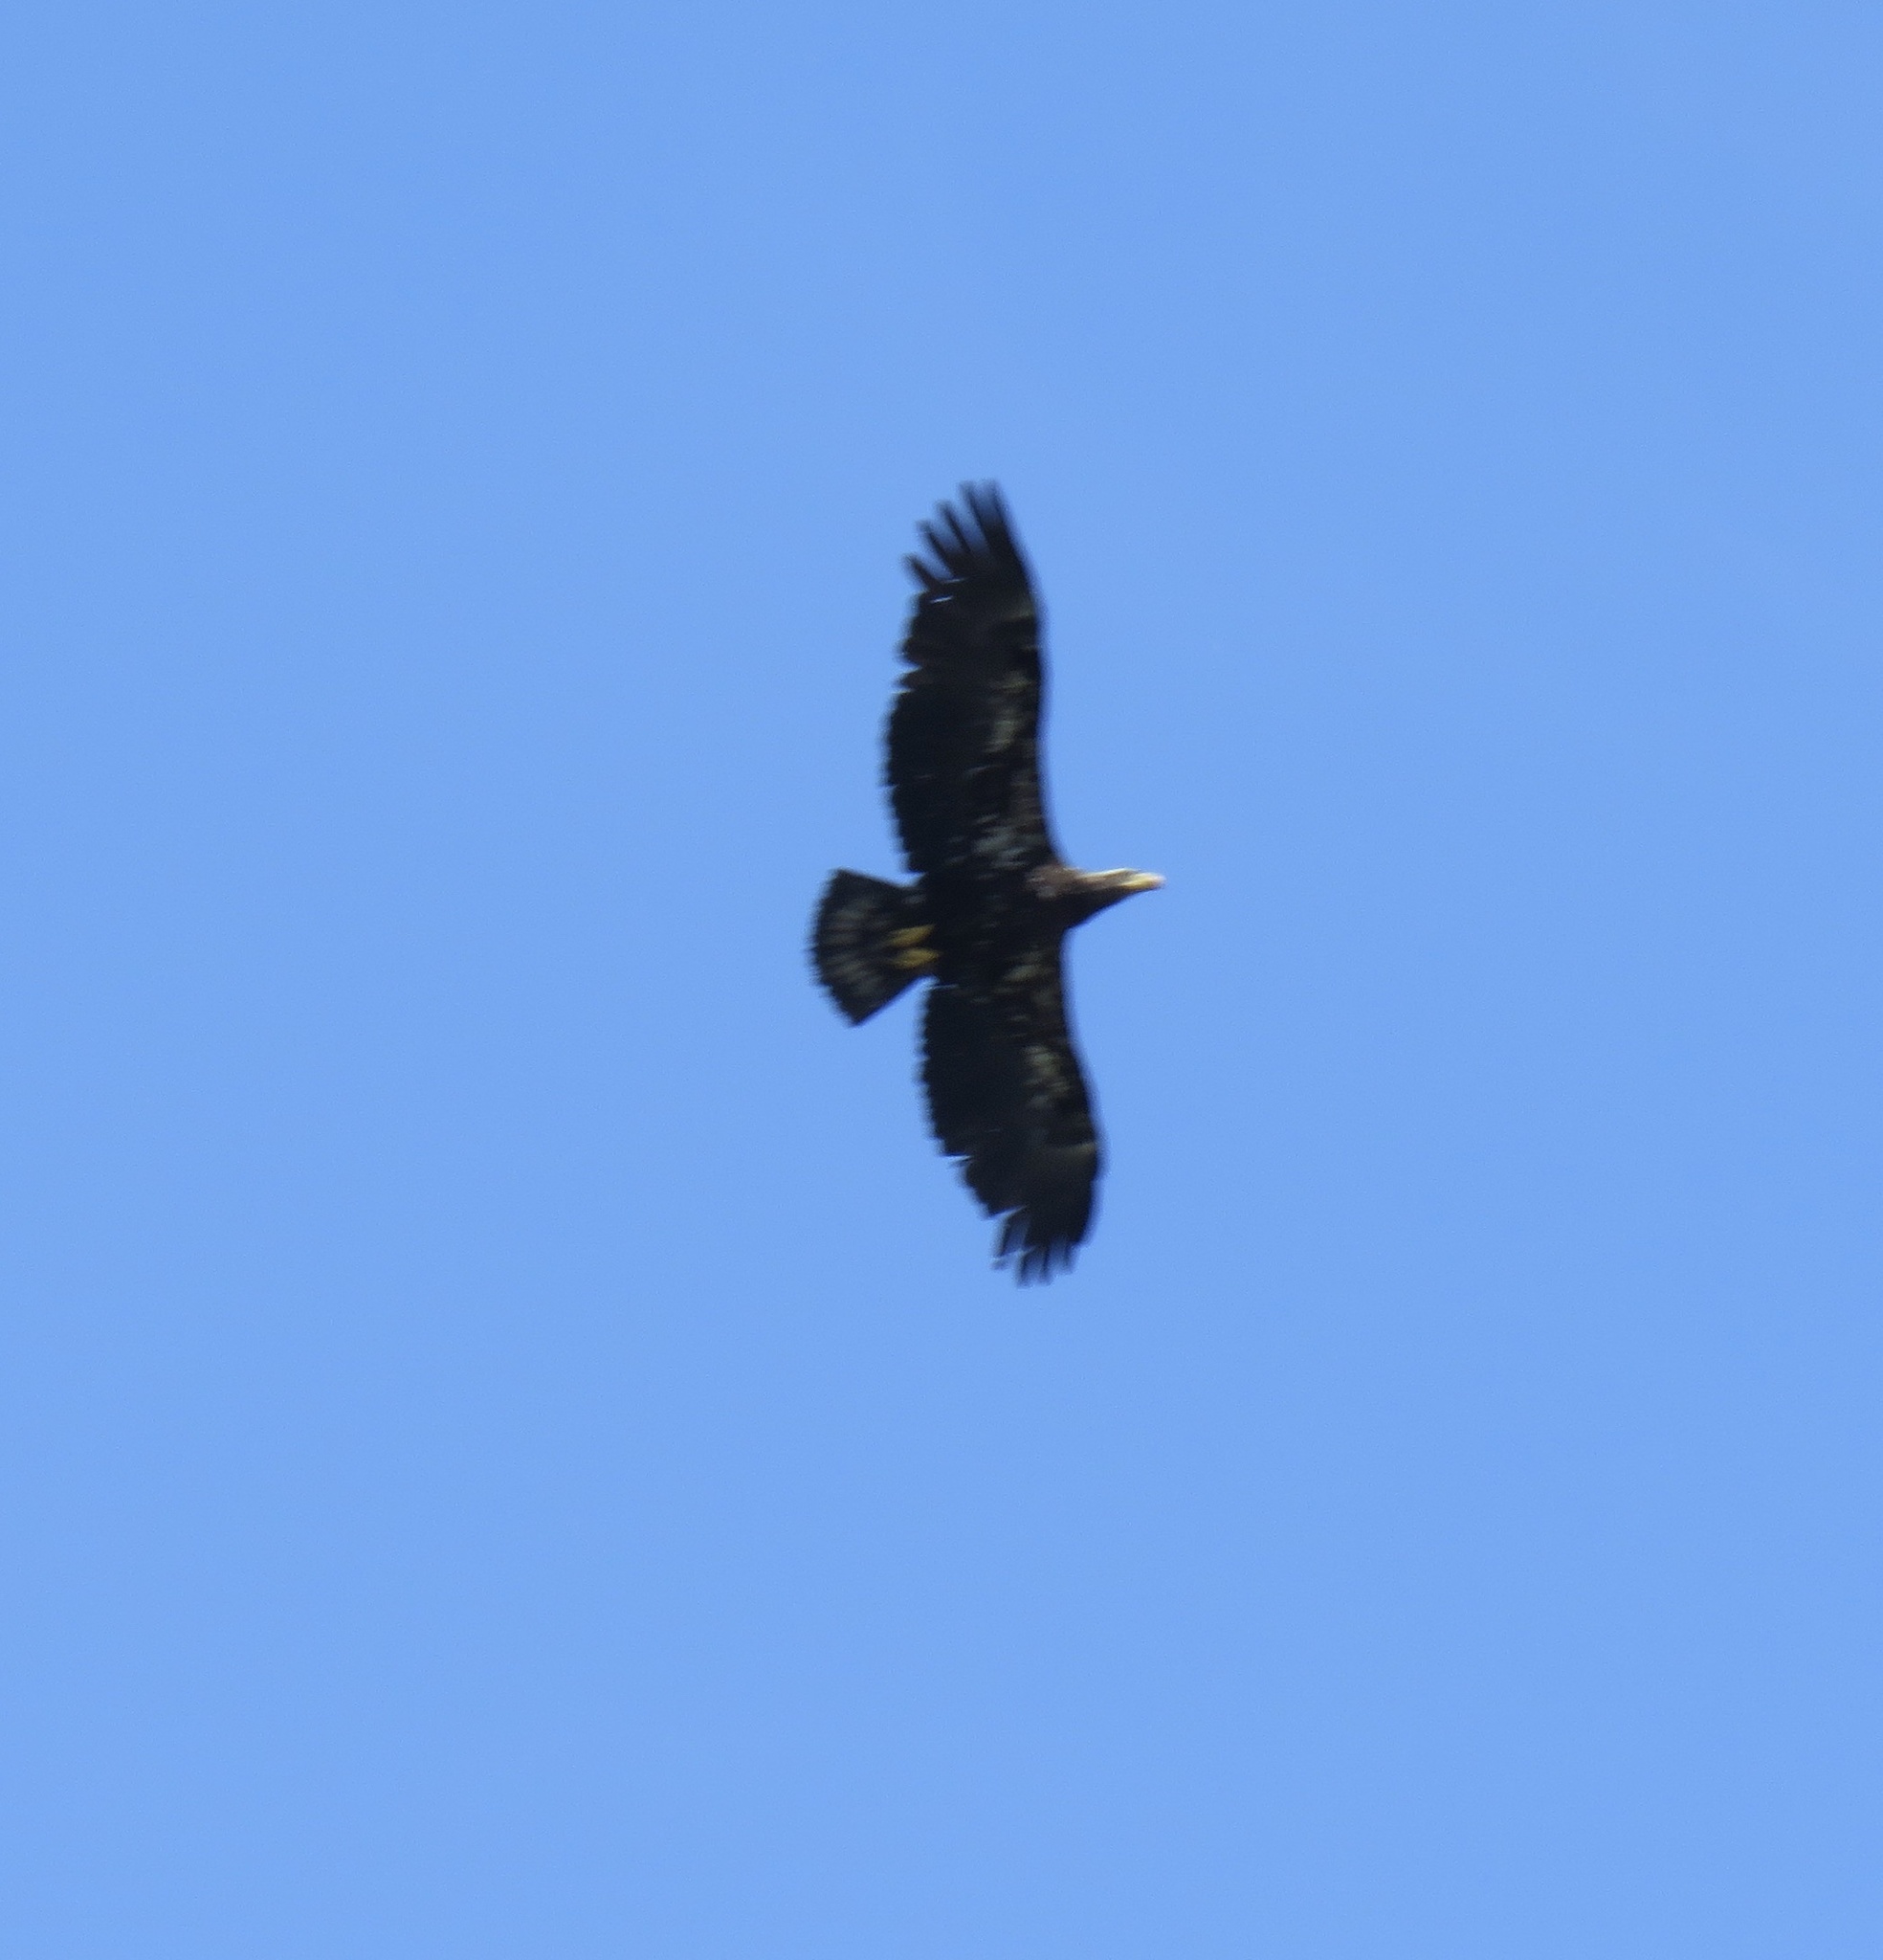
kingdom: Animalia
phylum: Chordata
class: Aves
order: Accipitriformes
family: Accipitridae
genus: Haliaeetus
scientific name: Haliaeetus leucocephalus
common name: Bald eagle
